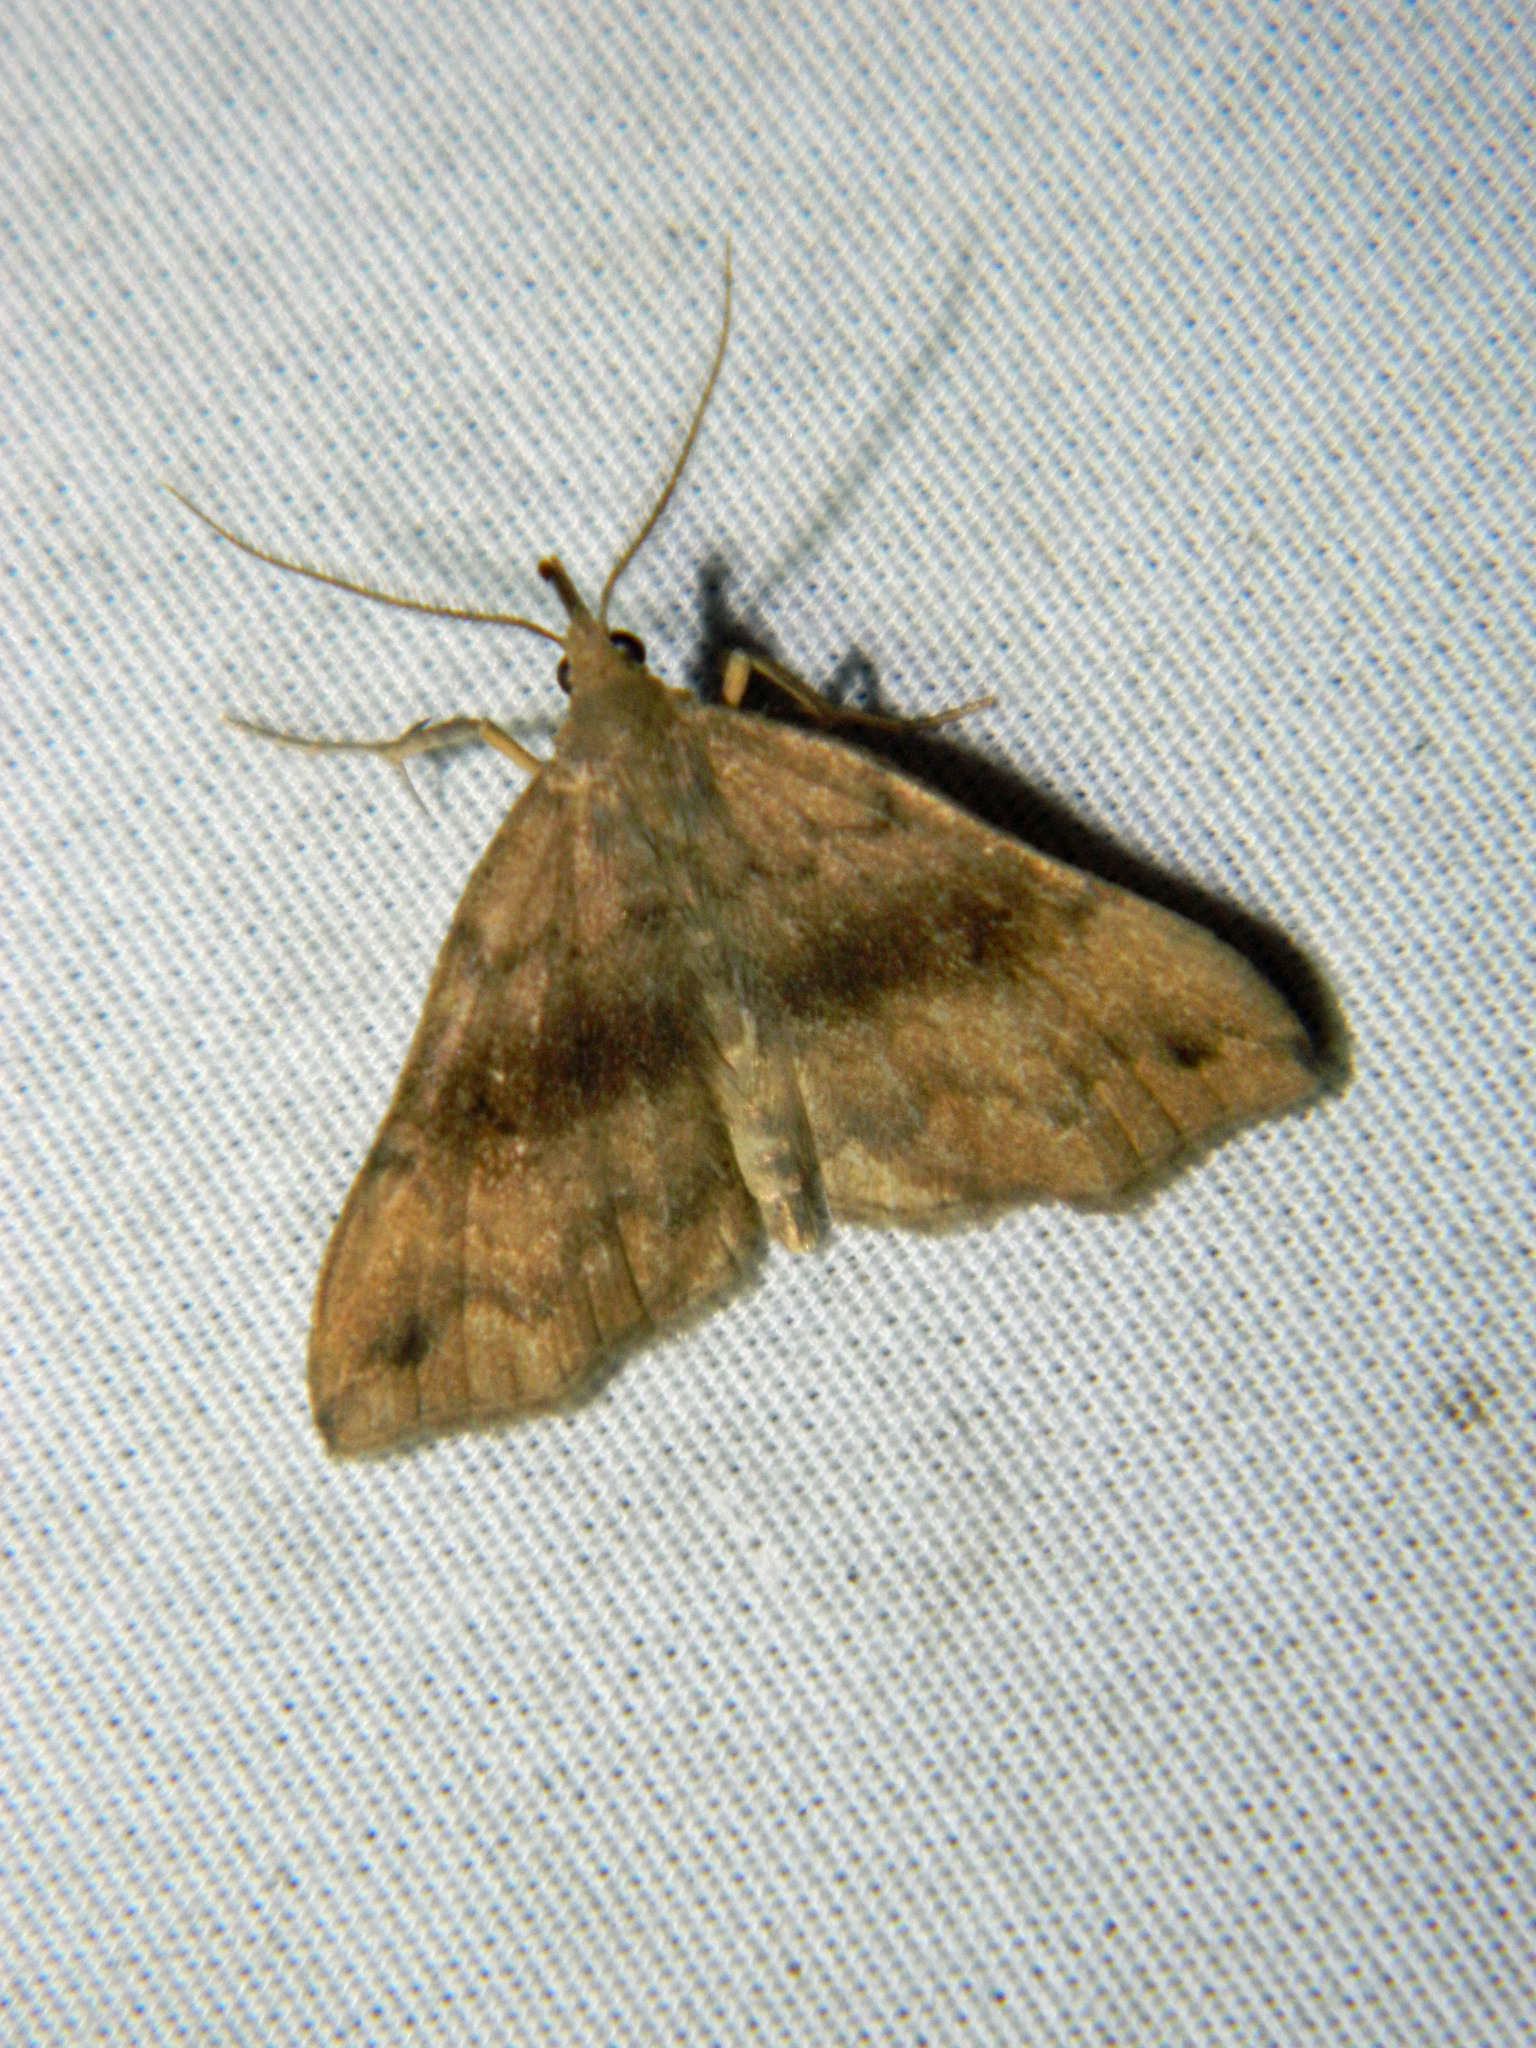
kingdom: Animalia
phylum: Arthropoda
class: Insecta
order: Lepidoptera
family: Erebidae
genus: Phalaenostola
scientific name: Phalaenostola eumelusalis
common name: Dark phalaenostola moth
